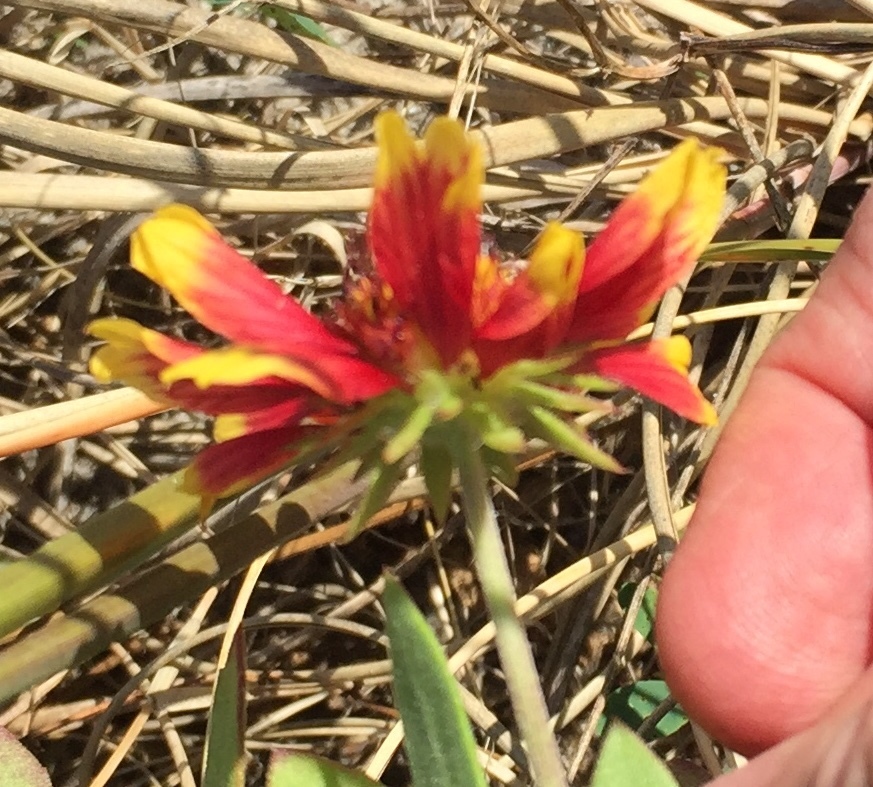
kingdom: Plantae
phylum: Tracheophyta
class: Magnoliopsida
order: Asterales
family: Asteraceae
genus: Gaillardia
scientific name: Gaillardia pulchella
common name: Firewheel
